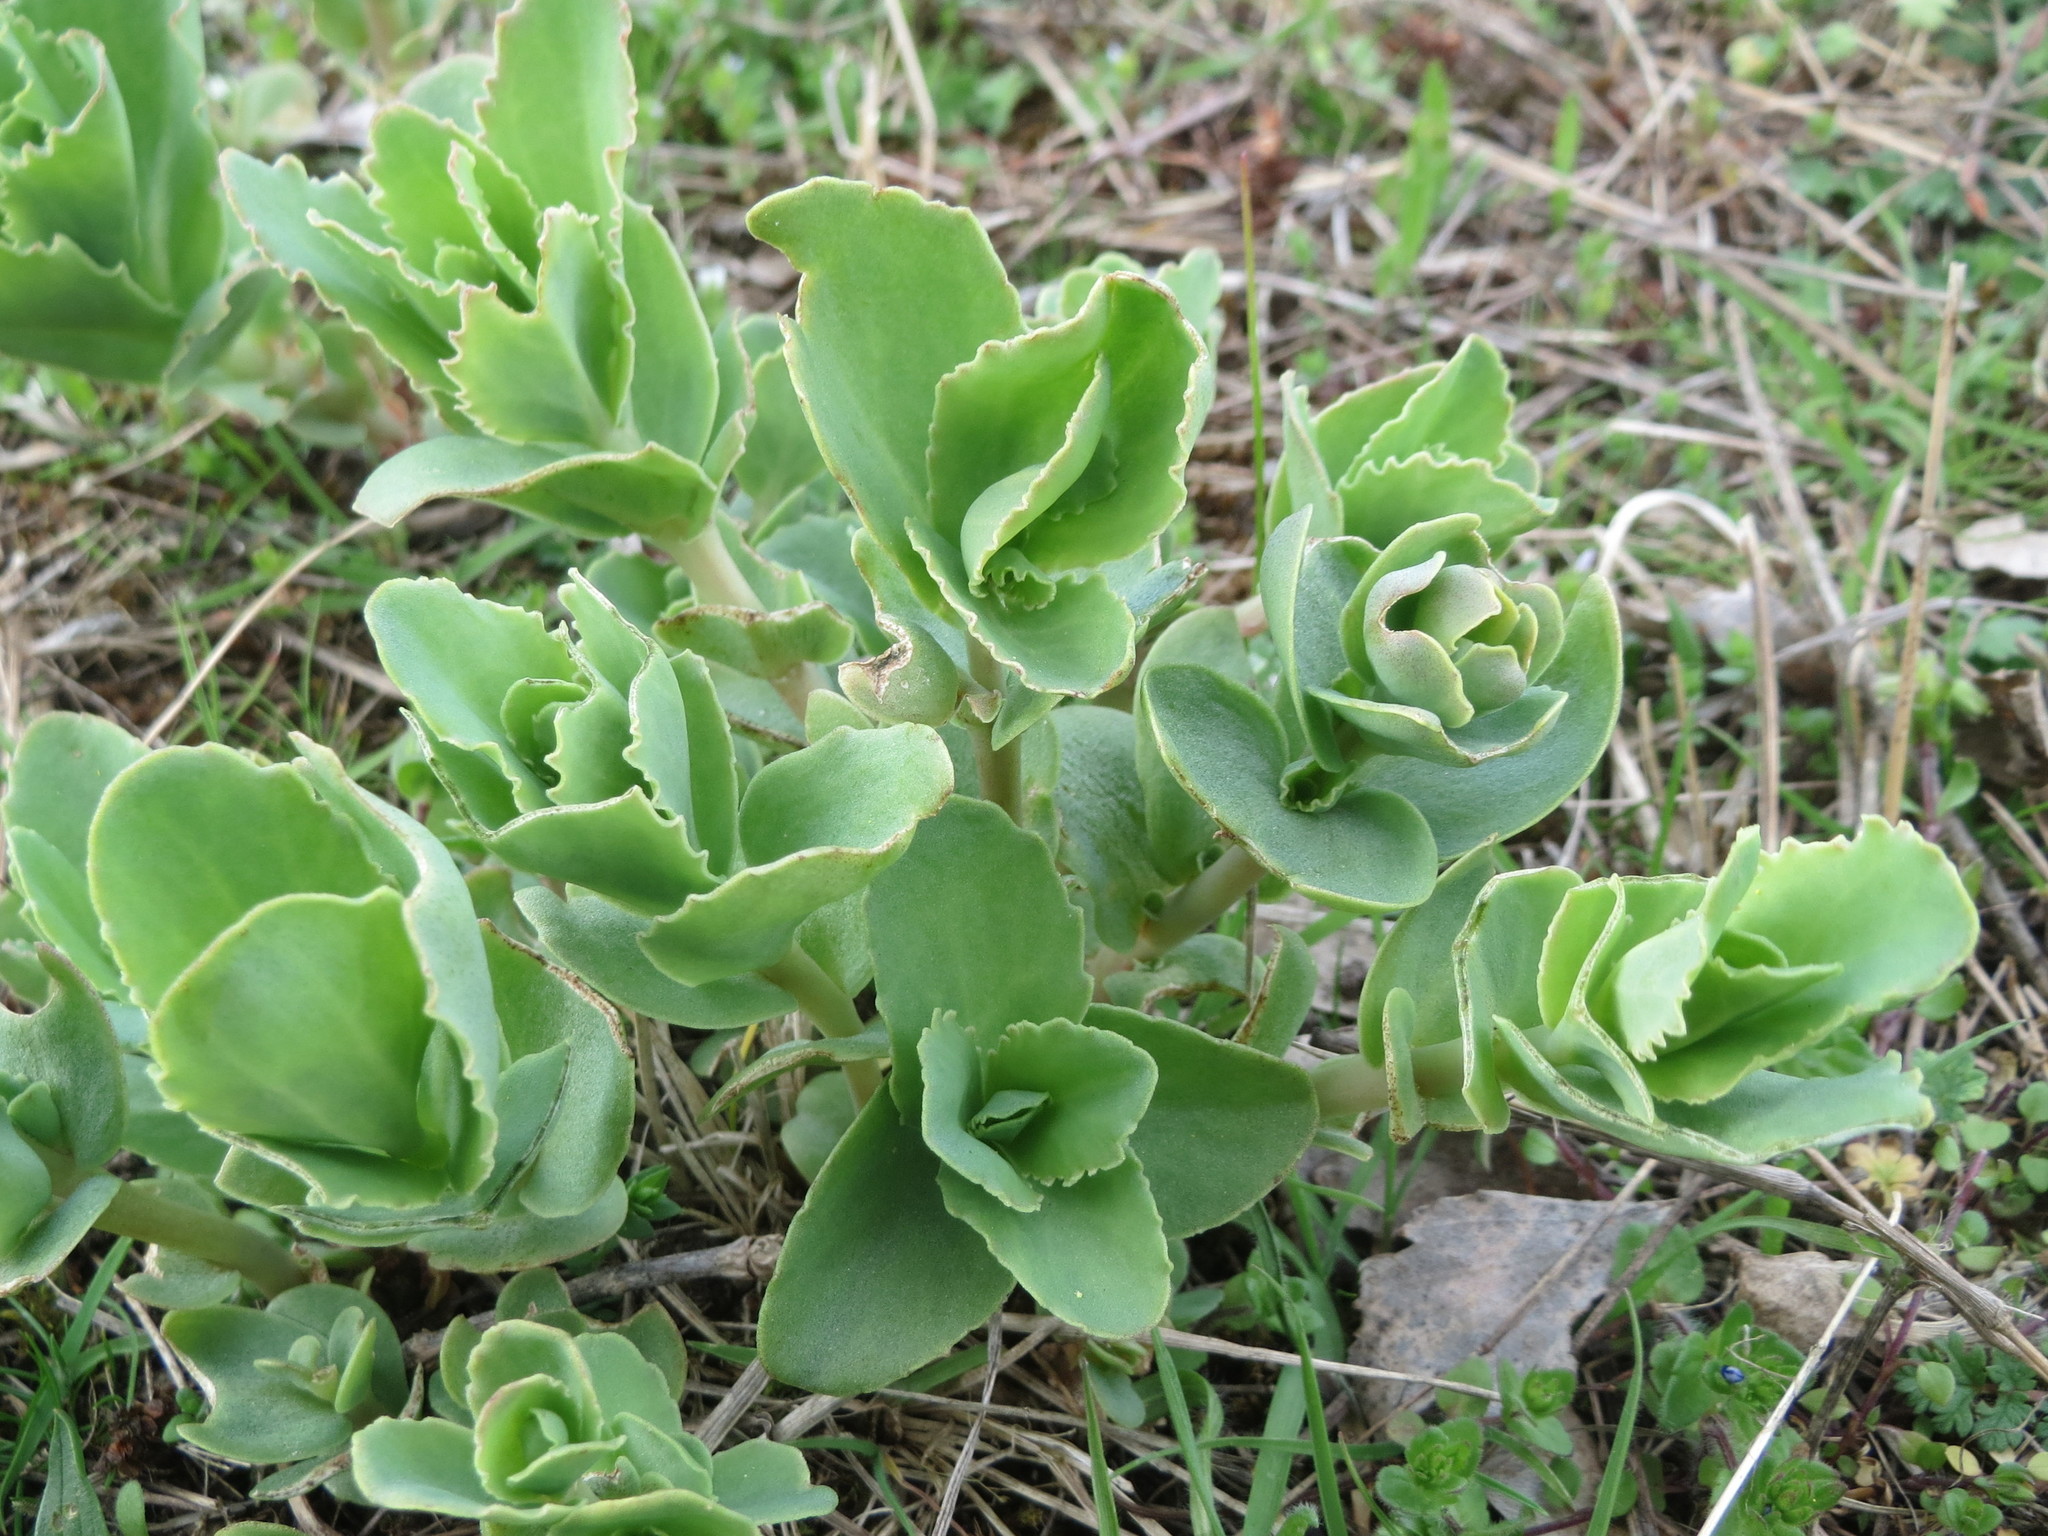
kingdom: Plantae
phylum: Tracheophyta
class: Magnoliopsida
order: Saxifragales
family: Crassulaceae
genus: Hylotelephium
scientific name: Hylotelephium telephium
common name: Live-forever
